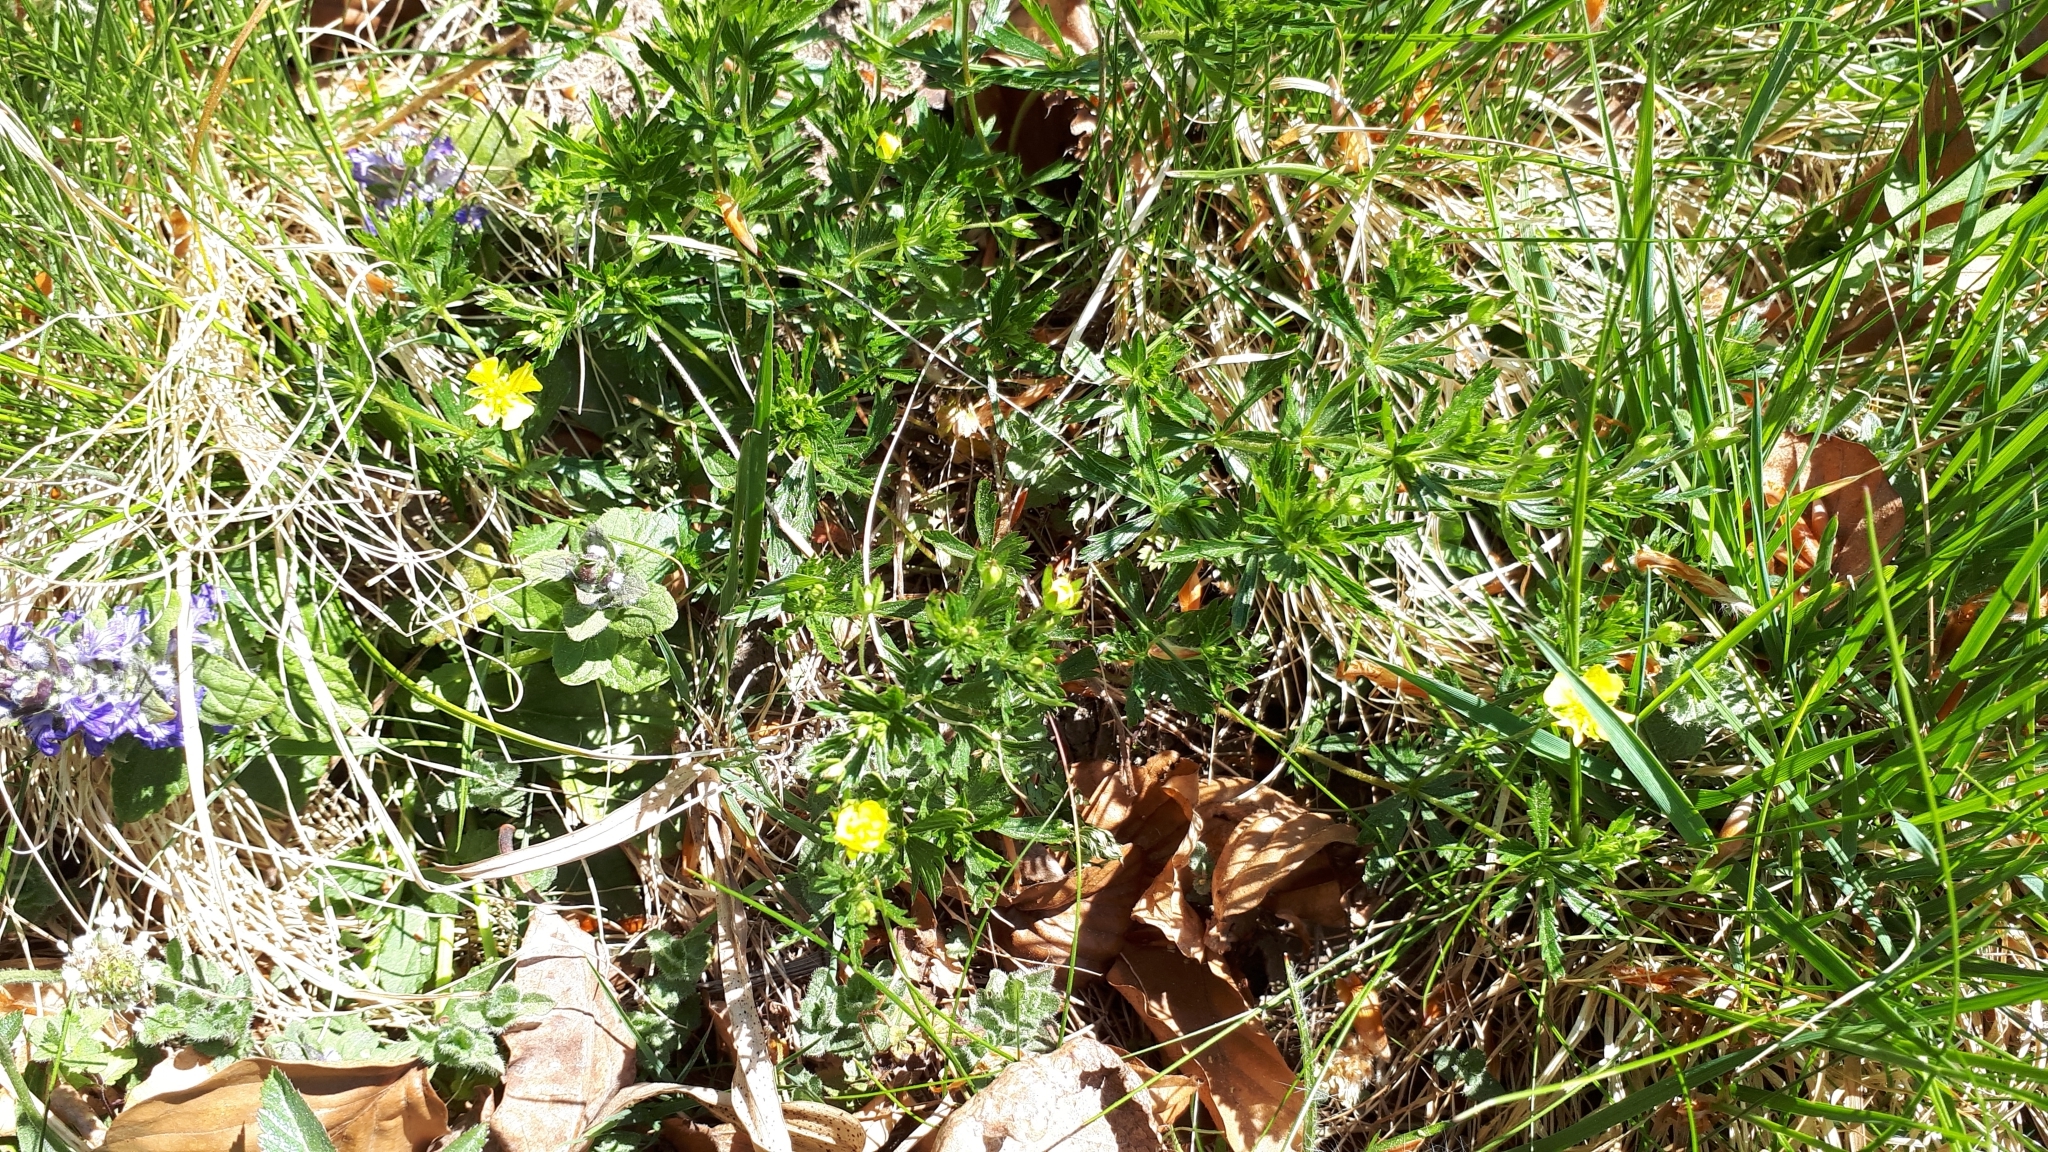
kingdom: Plantae
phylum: Tracheophyta
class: Magnoliopsida
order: Rosales
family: Rosaceae
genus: Potentilla
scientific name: Potentilla erecta
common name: Tormentil
